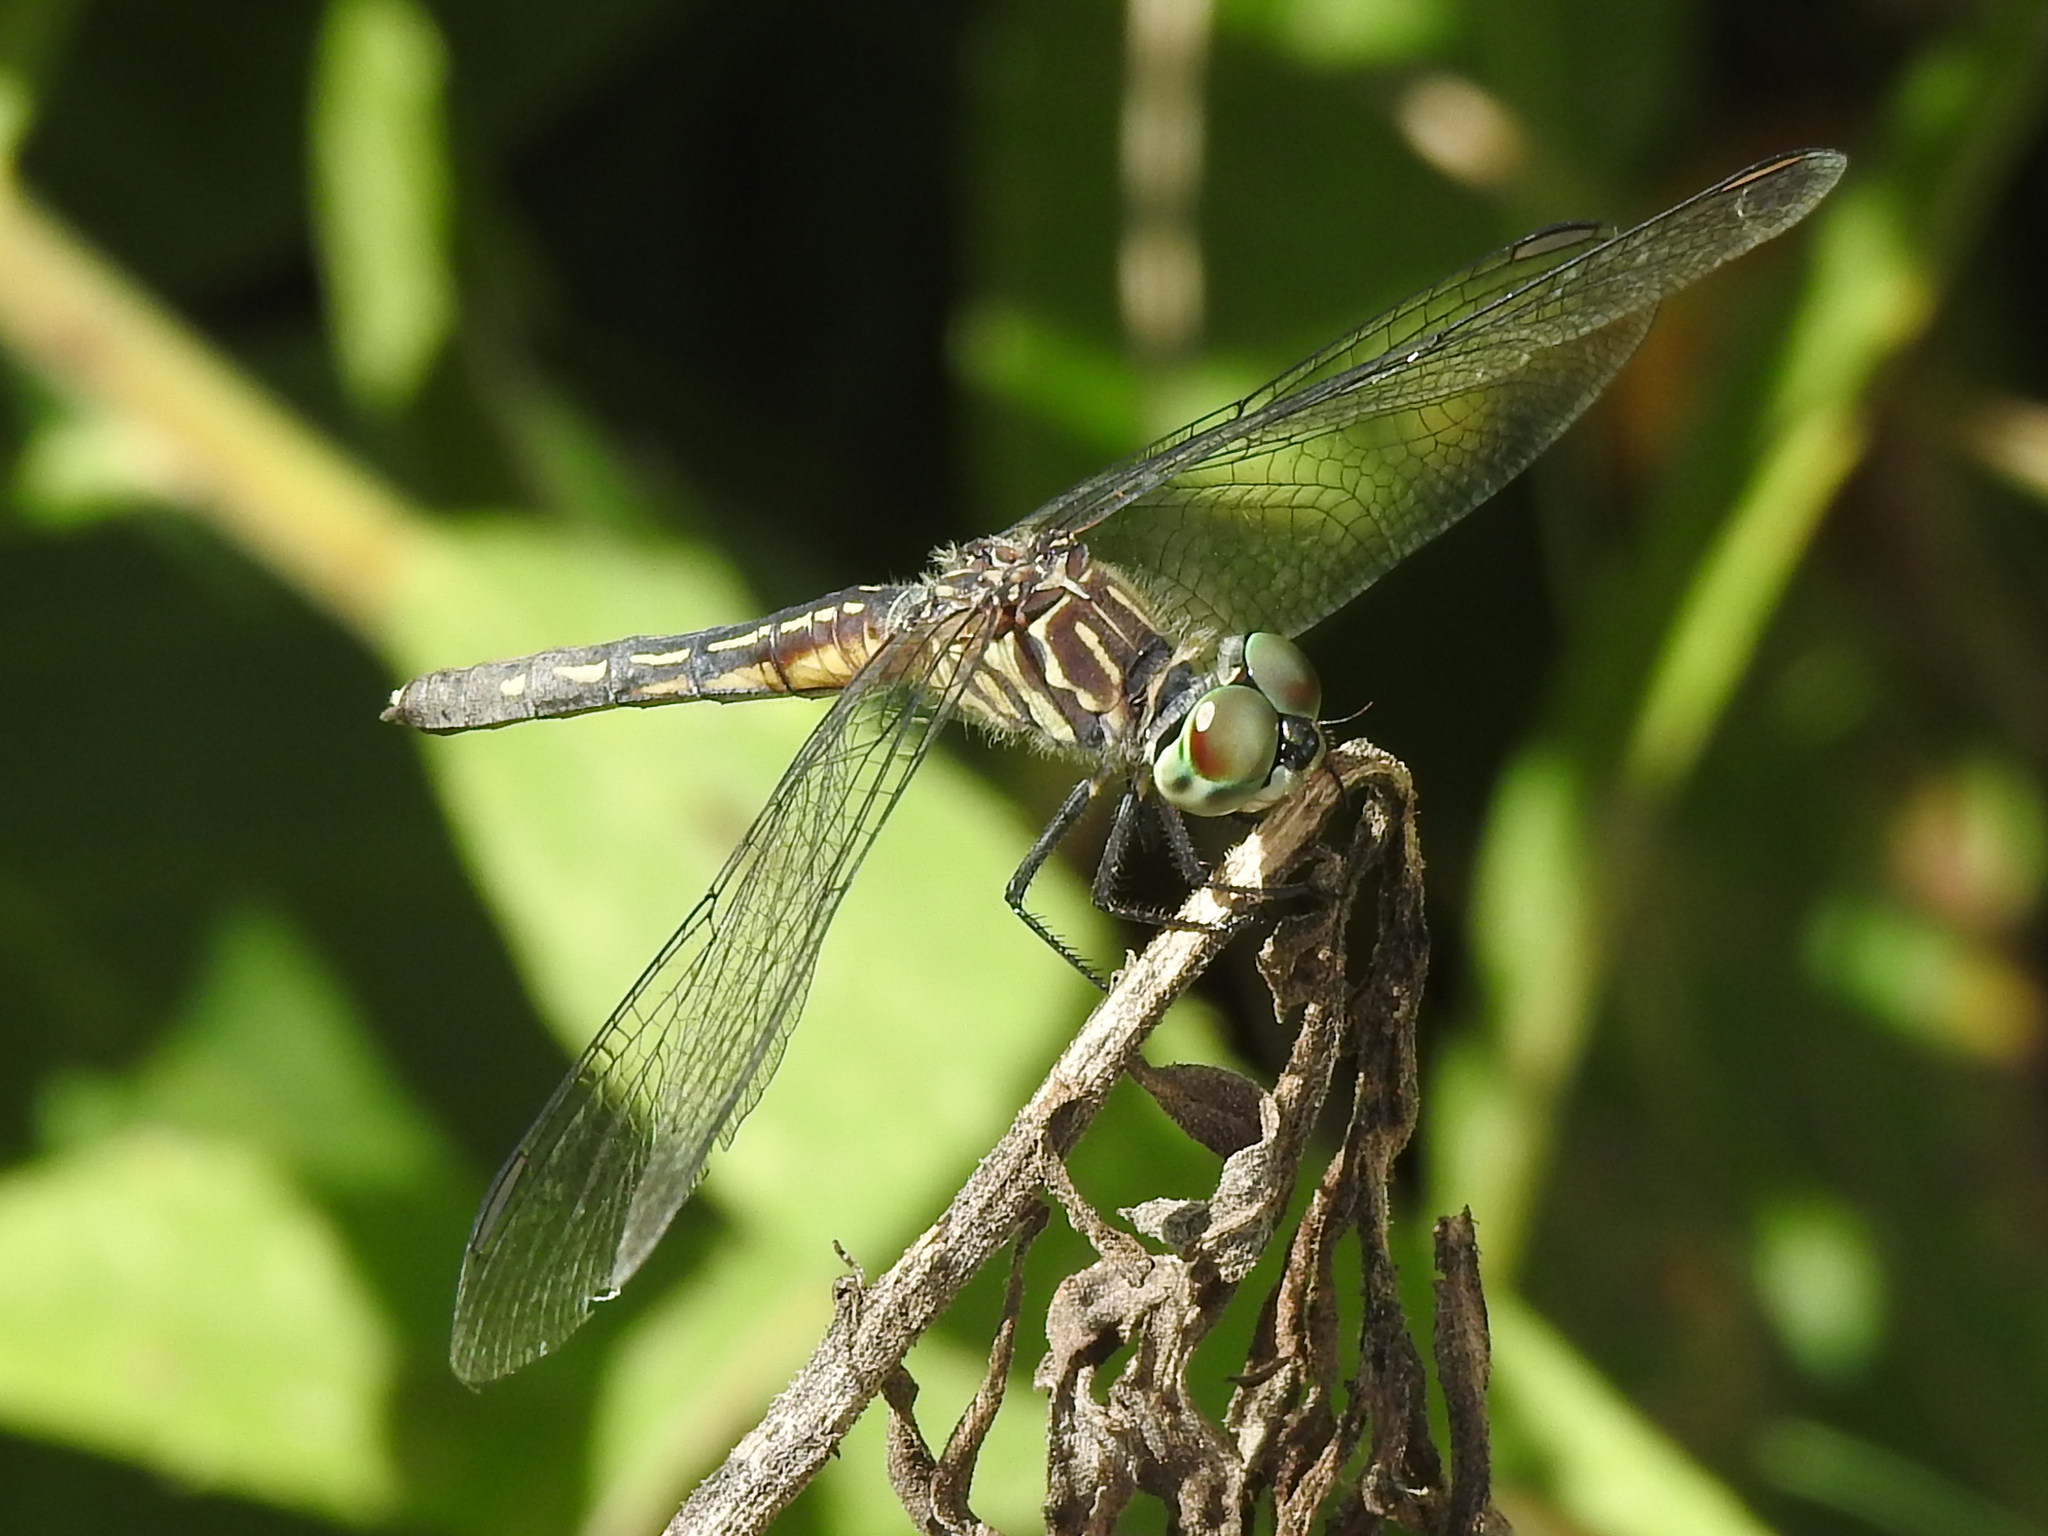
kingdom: Animalia
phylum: Arthropoda
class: Insecta
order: Odonata
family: Libellulidae
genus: Pachydiplax
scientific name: Pachydiplax longipennis
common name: Blue dasher
